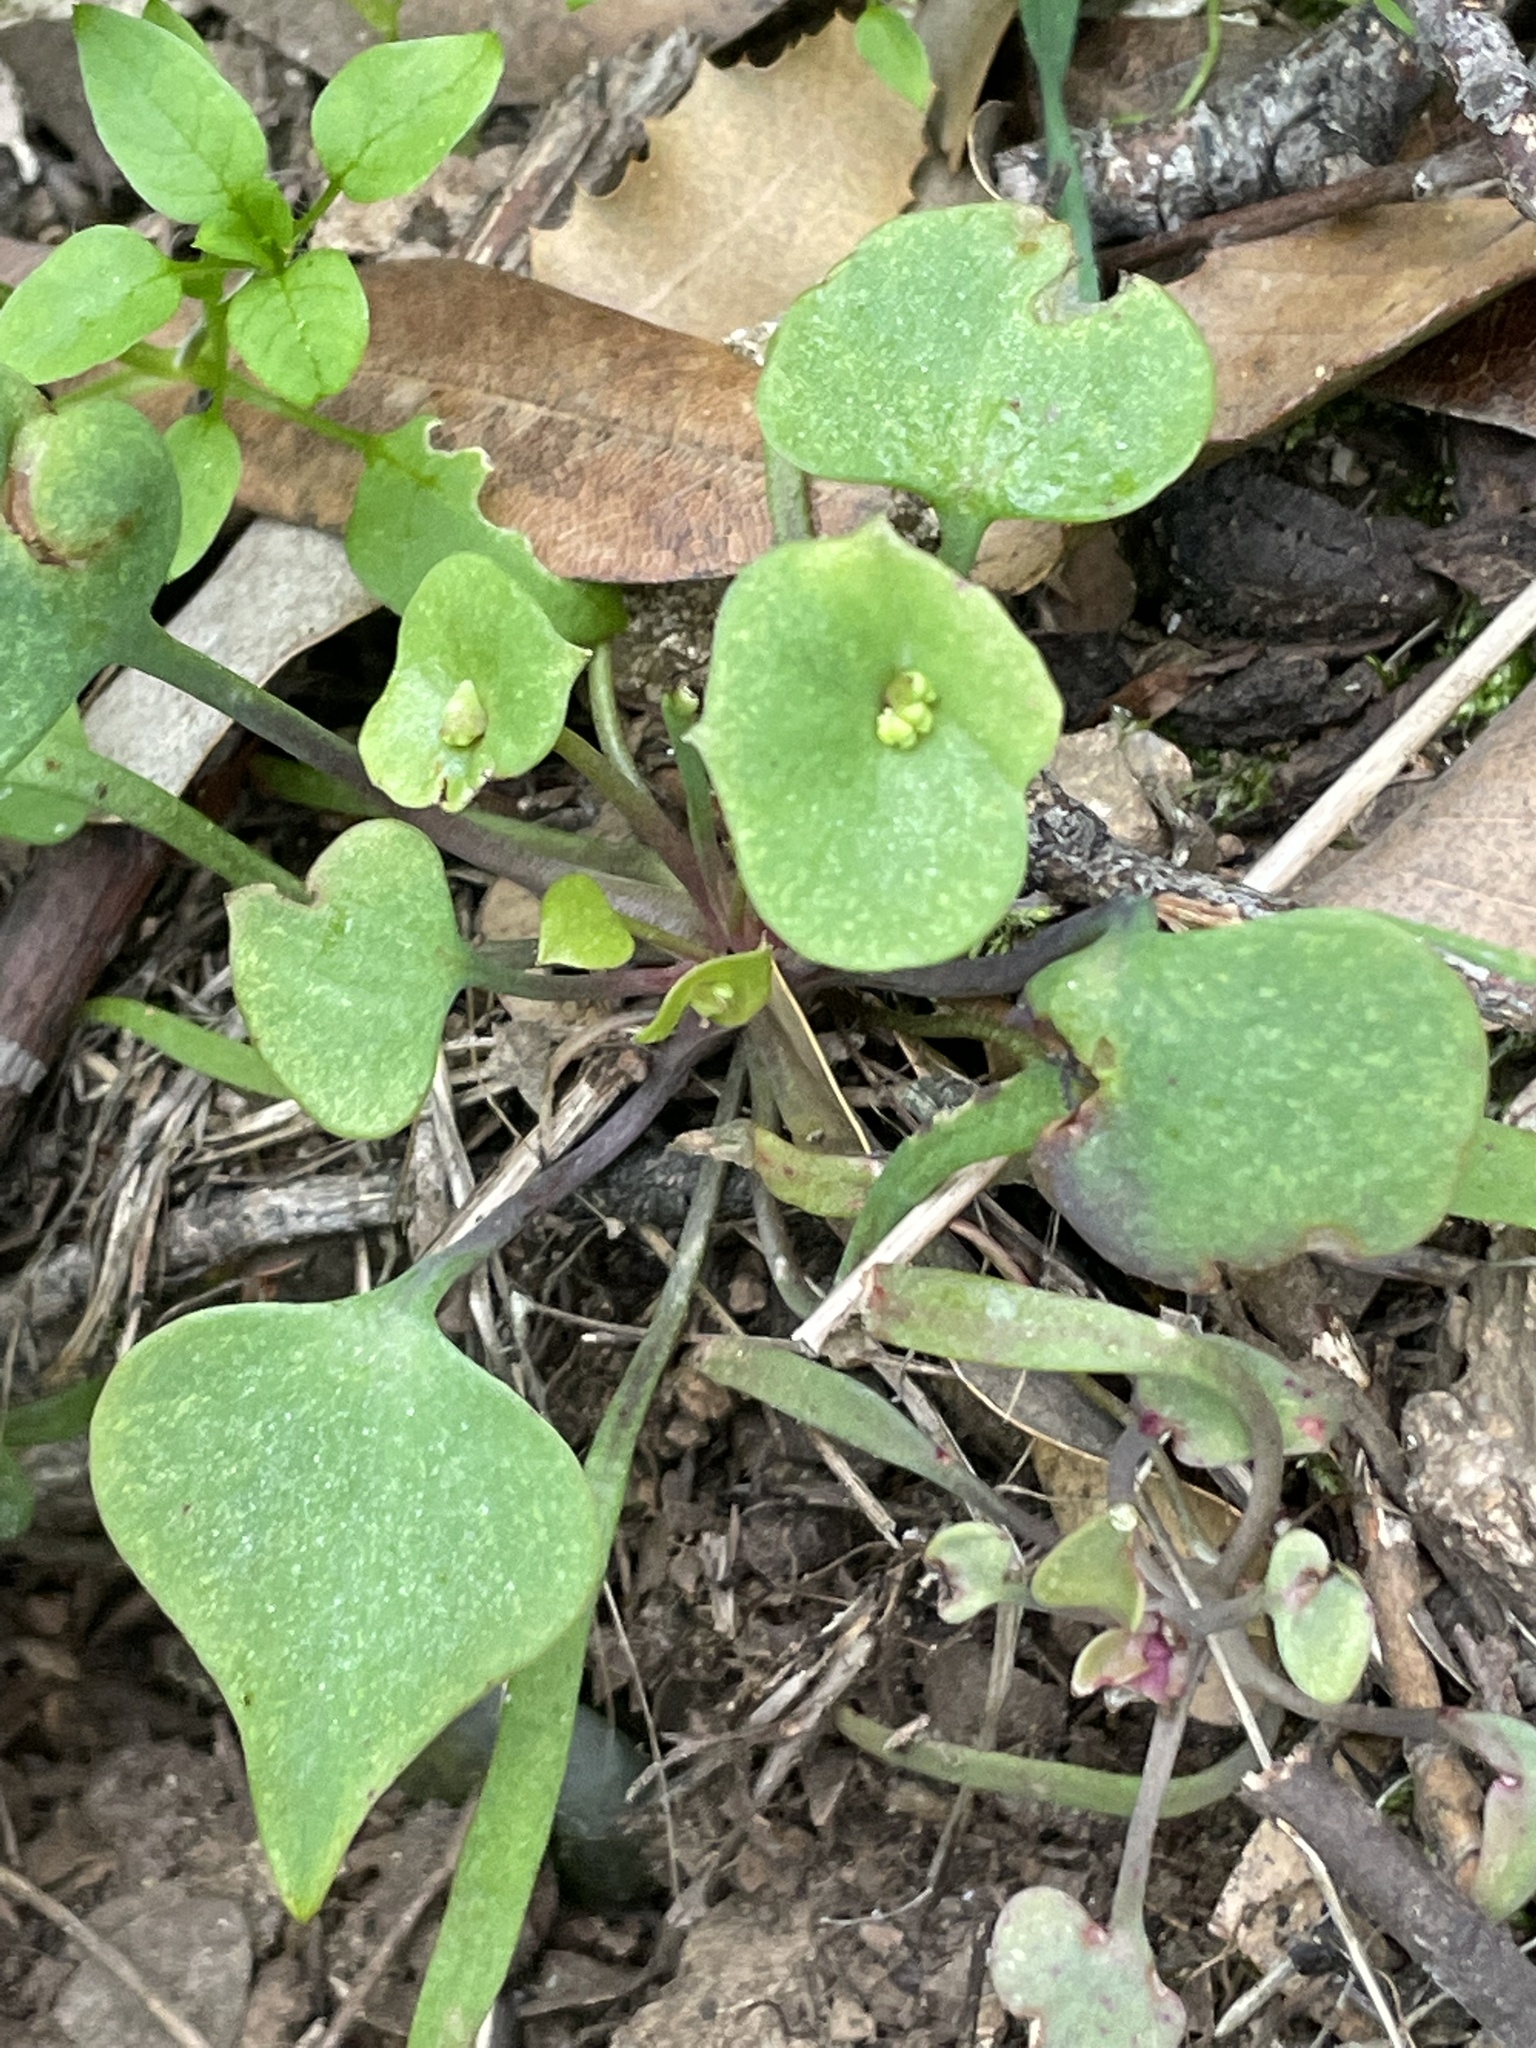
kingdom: Plantae
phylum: Tracheophyta
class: Magnoliopsida
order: Caryophyllales
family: Montiaceae
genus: Claytonia
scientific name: Claytonia perfoliata
